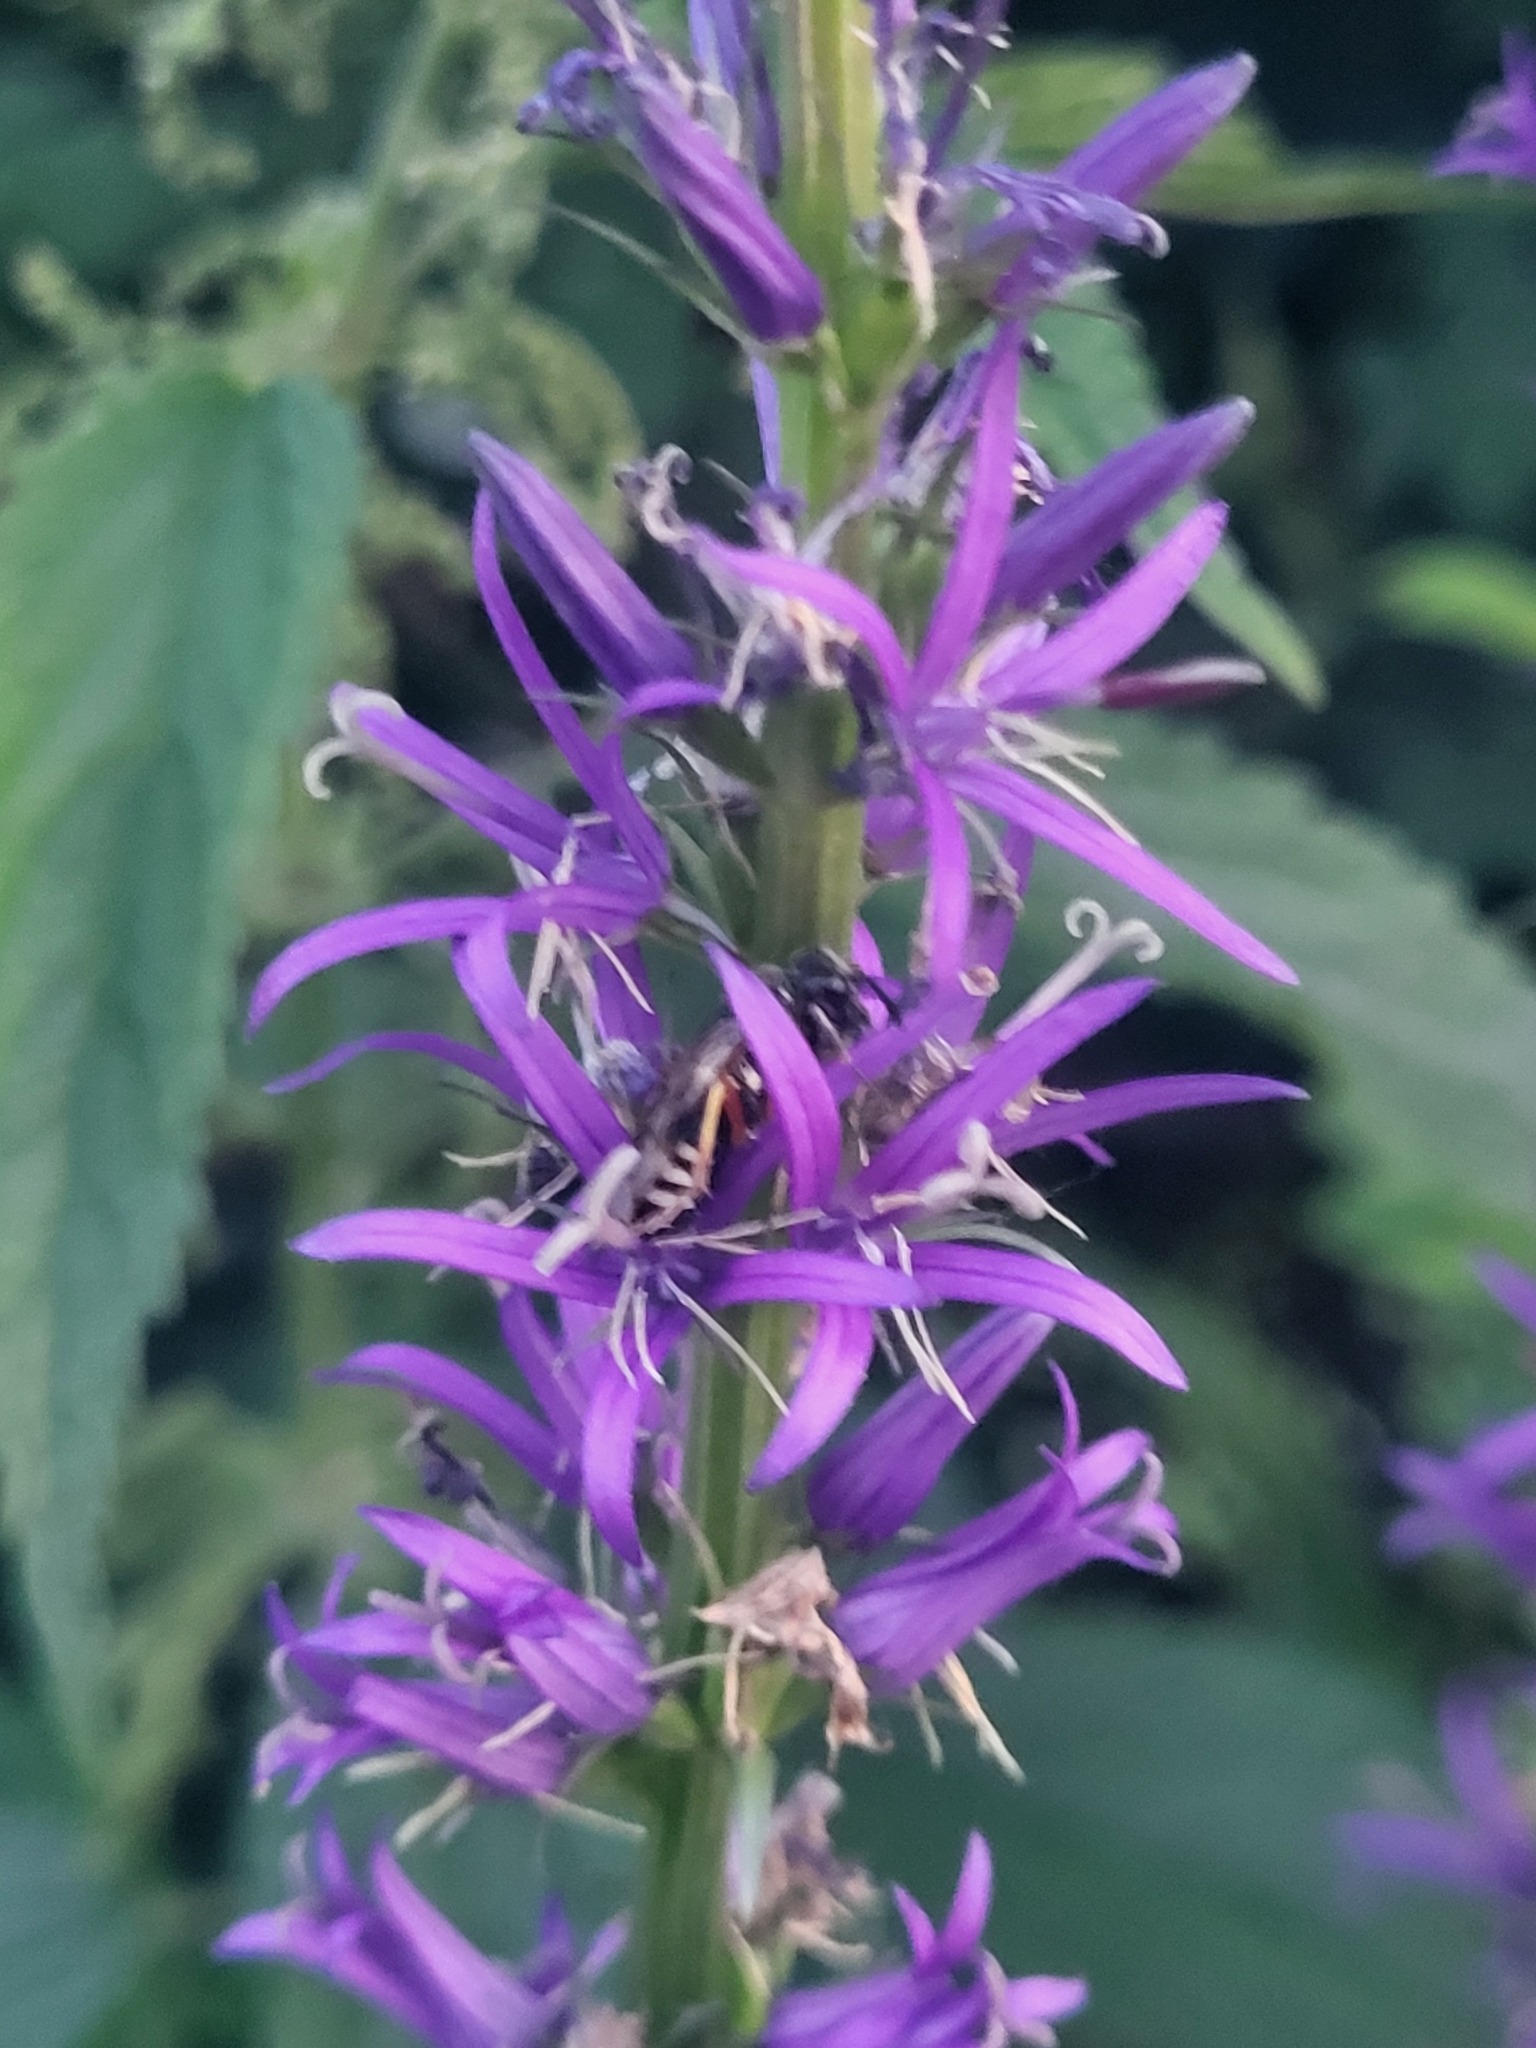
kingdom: Plantae
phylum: Tracheophyta
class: Magnoliopsida
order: Asterales
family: Campanulaceae
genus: Asyneuma
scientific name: Asyneuma campanuloides
